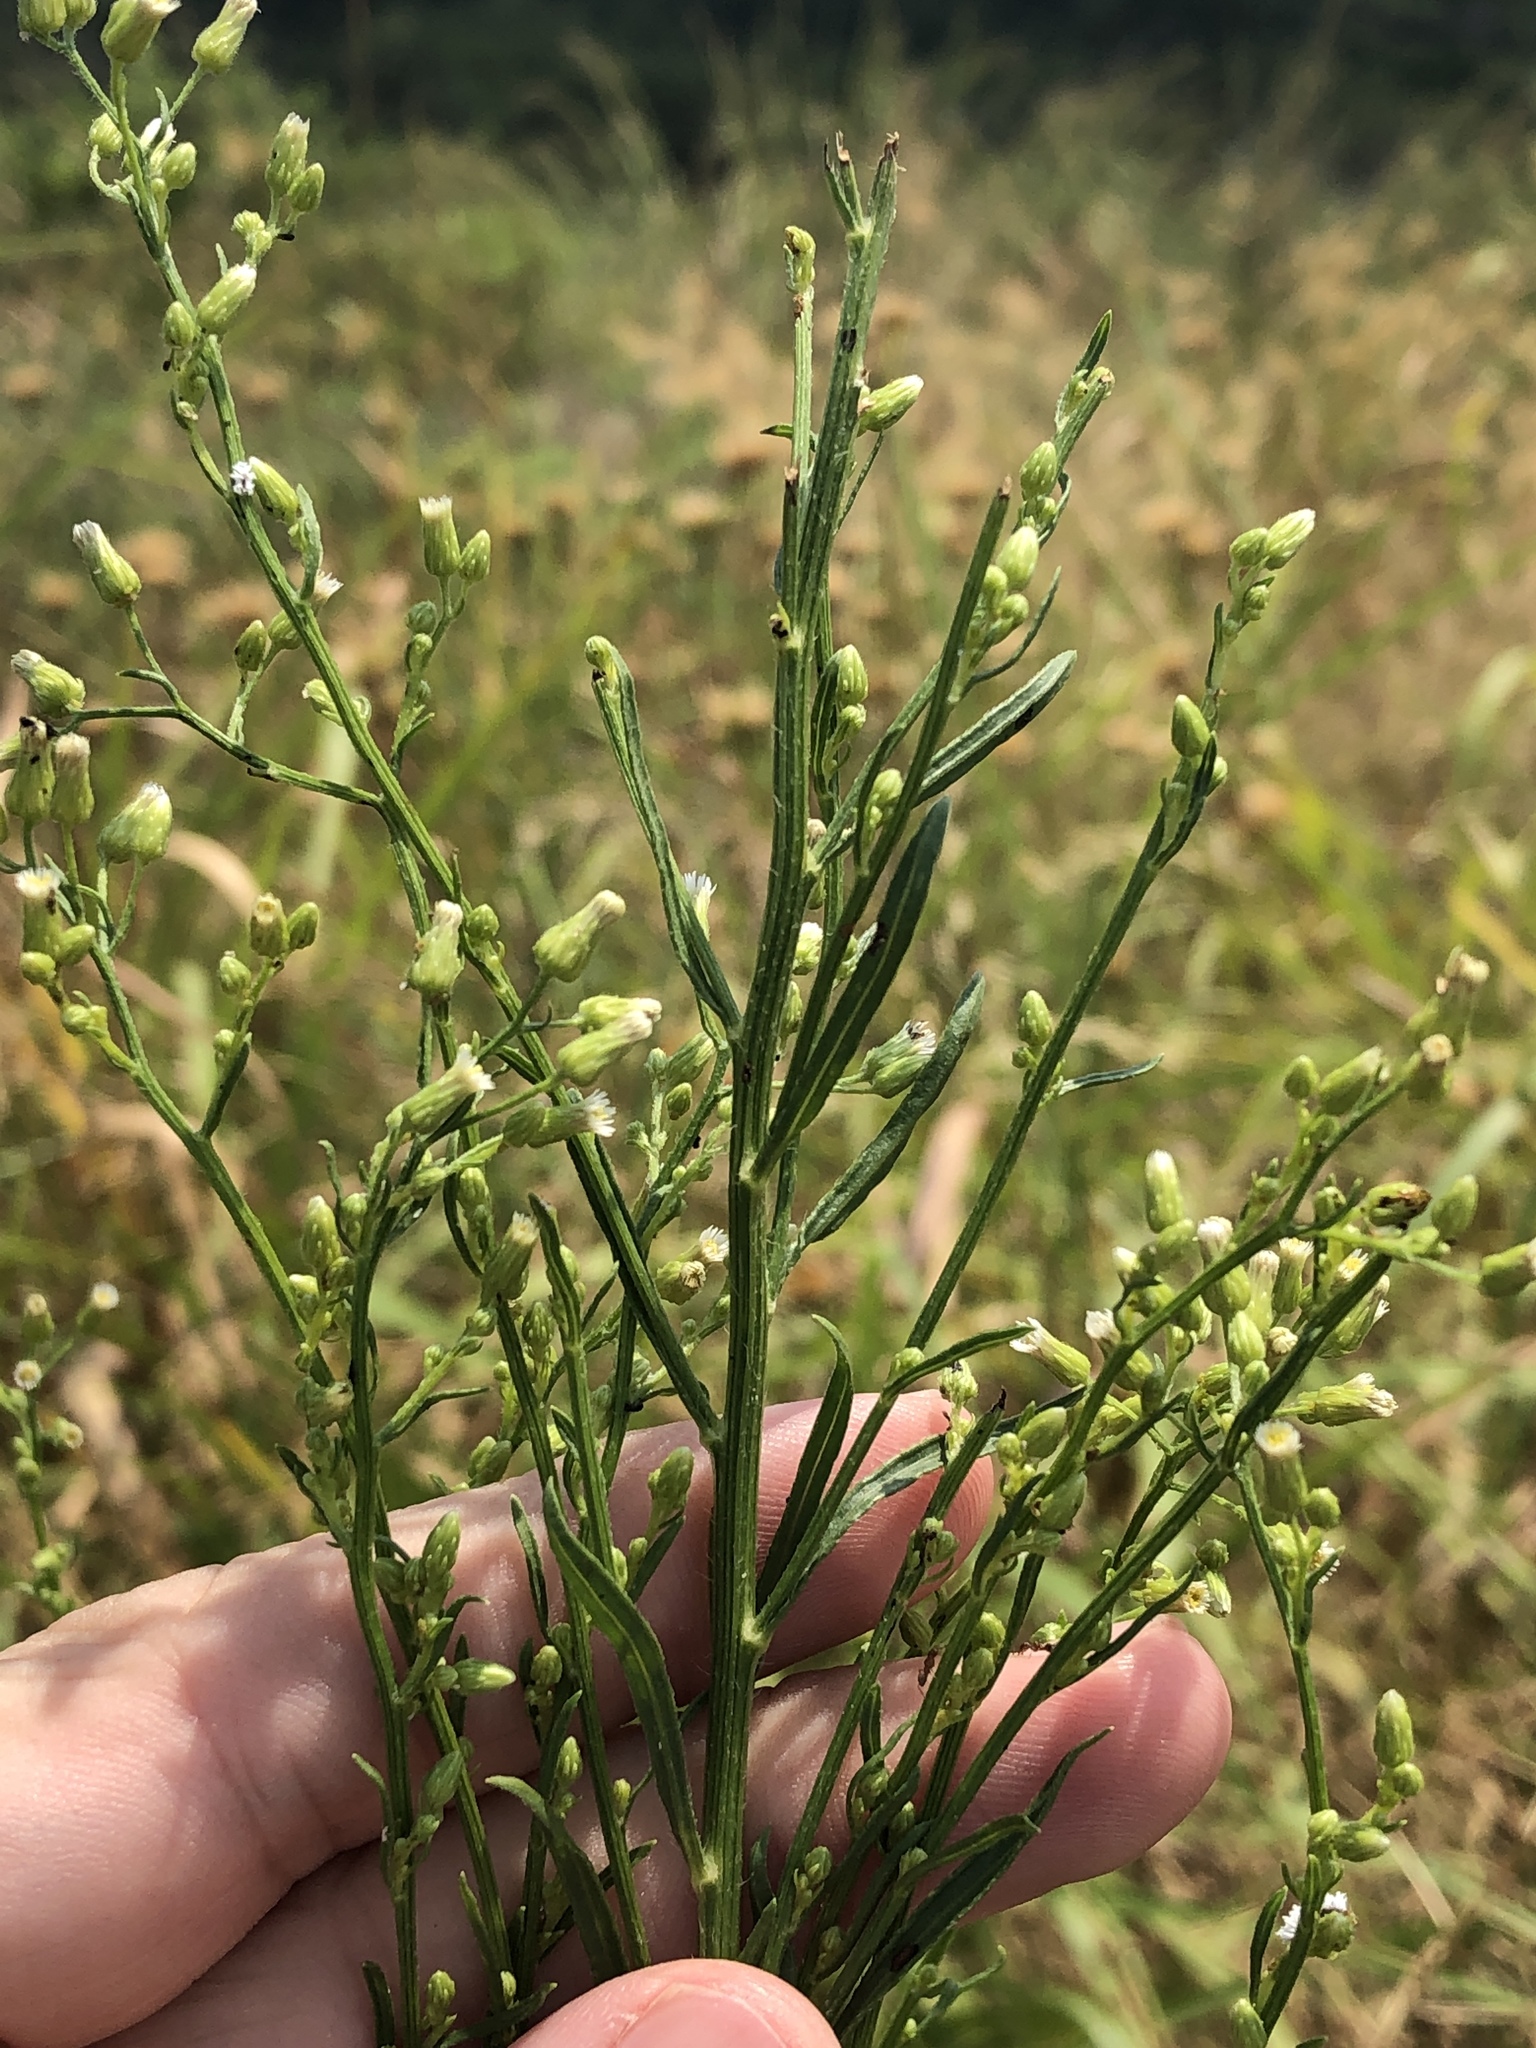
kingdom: Plantae
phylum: Tracheophyta
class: Magnoliopsida
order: Asterales
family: Asteraceae
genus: Erigeron
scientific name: Erigeron canadensis
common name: Canadian fleabane
